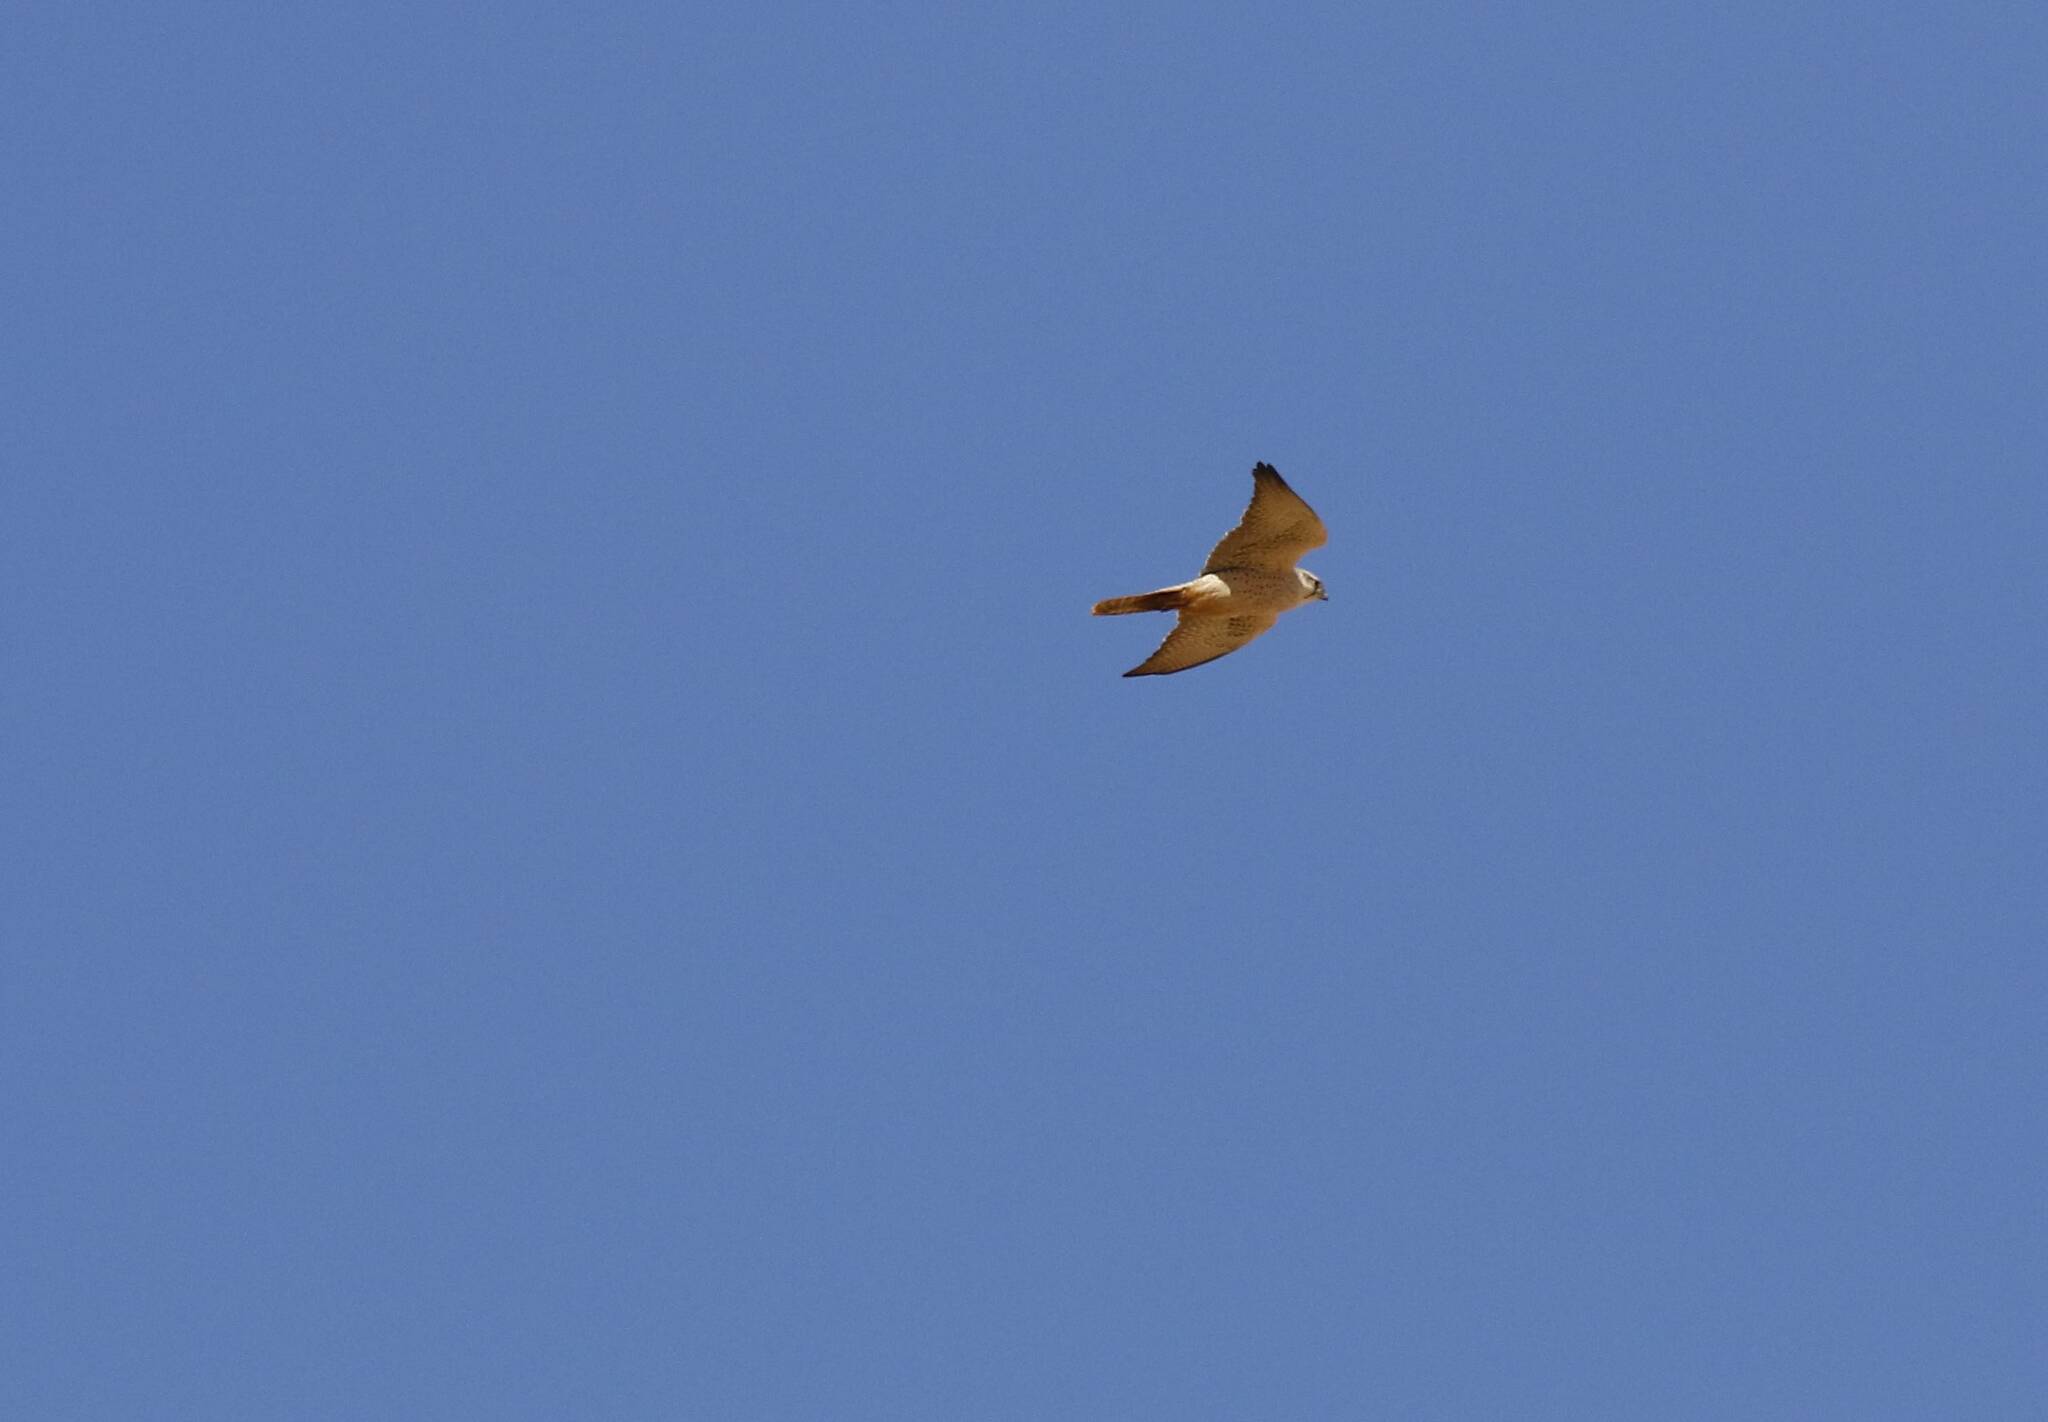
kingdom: Animalia
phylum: Chordata
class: Aves
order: Falconiformes
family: Falconidae
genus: Falco
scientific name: Falco biarmicus
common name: Lanner falcon
